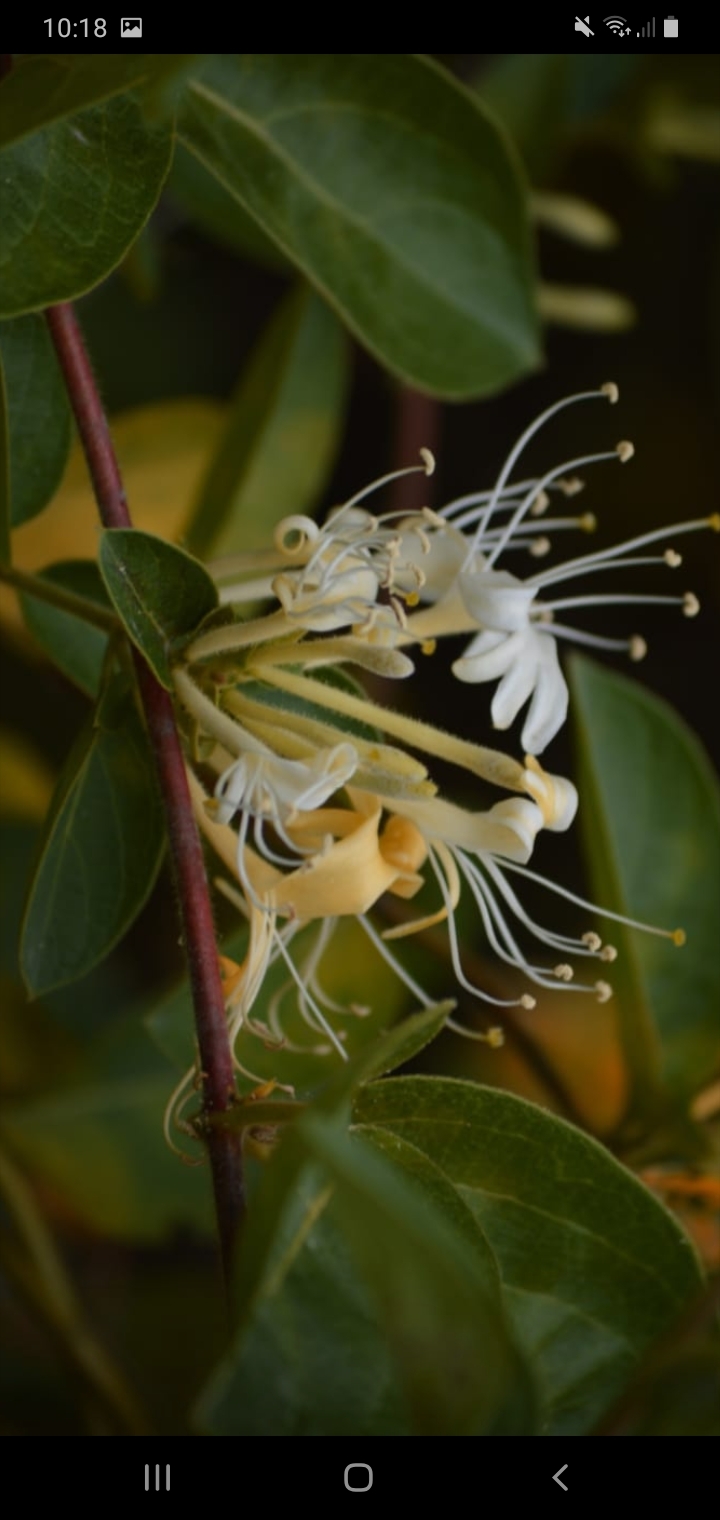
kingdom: Plantae
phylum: Tracheophyta
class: Magnoliopsida
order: Dipsacales
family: Caprifoliaceae
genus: Lonicera
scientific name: Lonicera japonica
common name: Japanese honeysuckle
